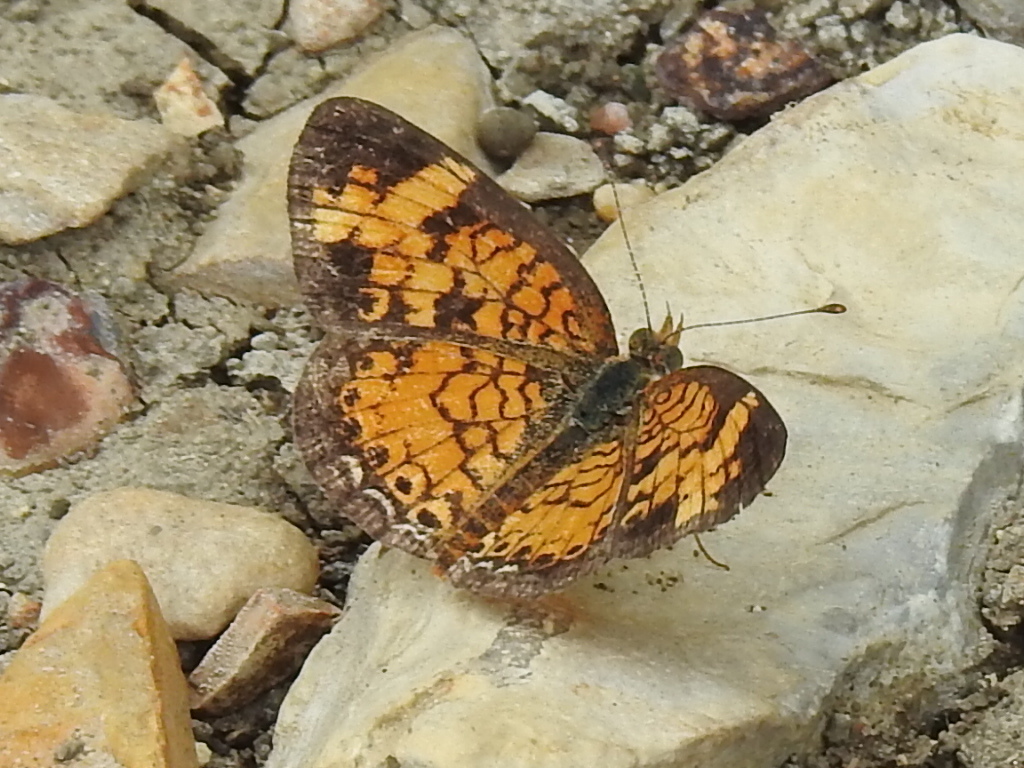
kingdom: Animalia
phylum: Arthropoda
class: Insecta
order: Lepidoptera
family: Nymphalidae
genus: Phyciodes
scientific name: Phyciodes tharos
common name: Pearl crescent
